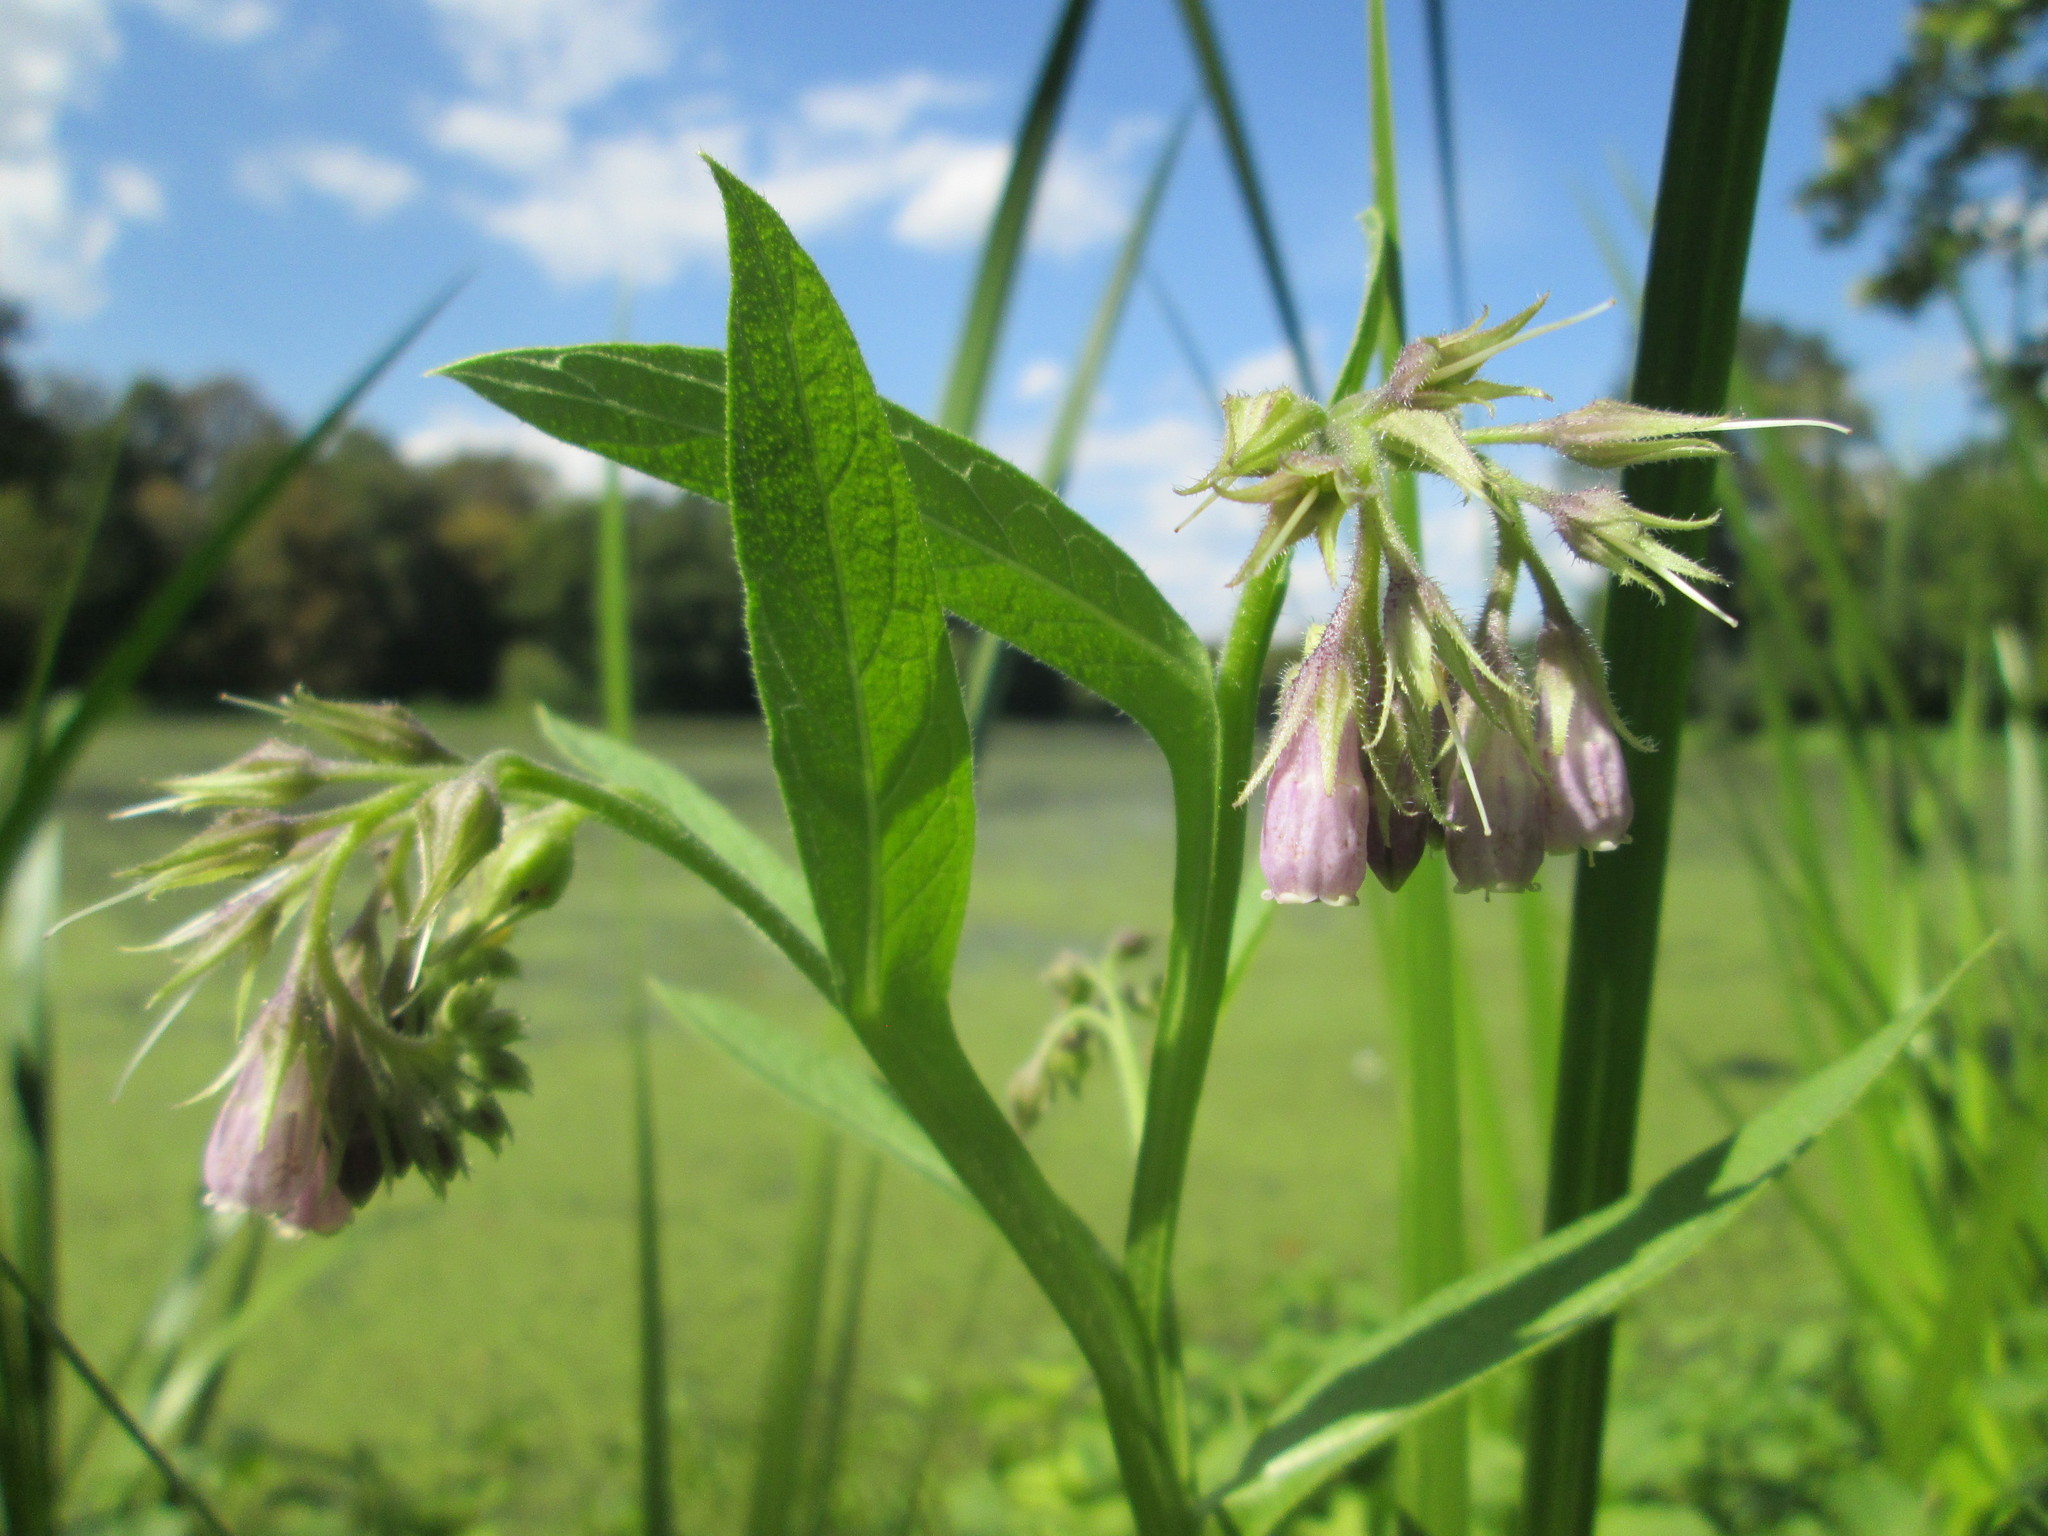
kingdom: Plantae
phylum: Tracheophyta
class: Magnoliopsida
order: Boraginales
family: Boraginaceae
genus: Symphytum
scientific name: Symphytum officinale
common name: Common comfrey
